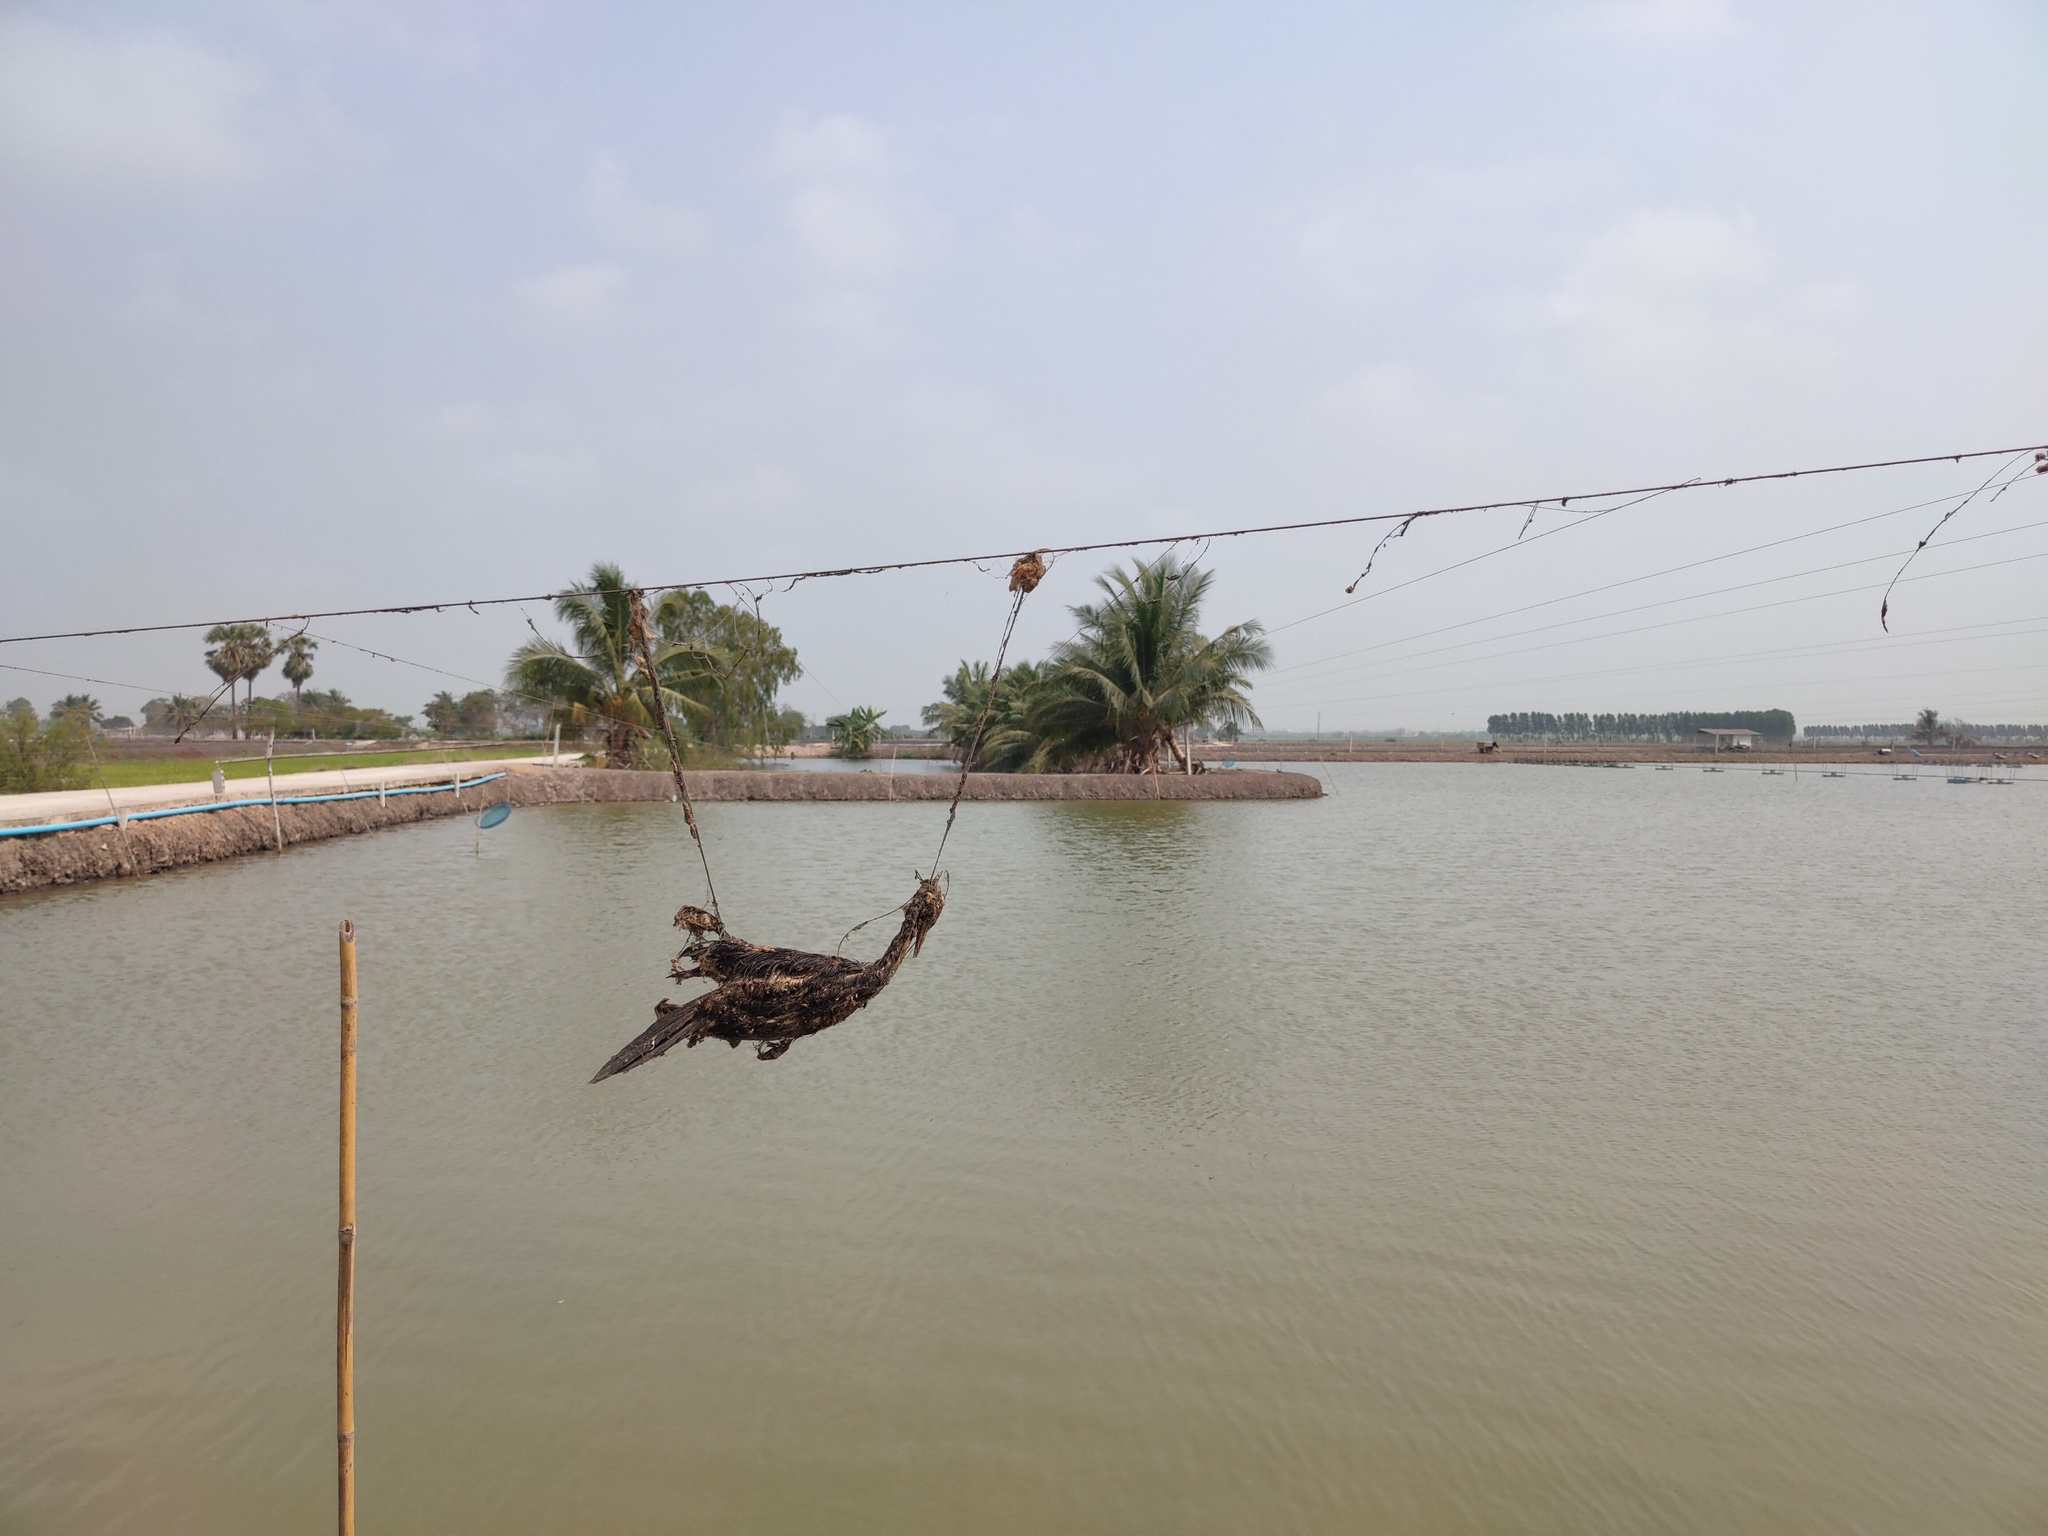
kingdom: Animalia
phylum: Chordata
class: Aves
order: Suliformes
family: Phalacrocoracidae
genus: Microcarbo
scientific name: Microcarbo niger
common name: Little cormorant
